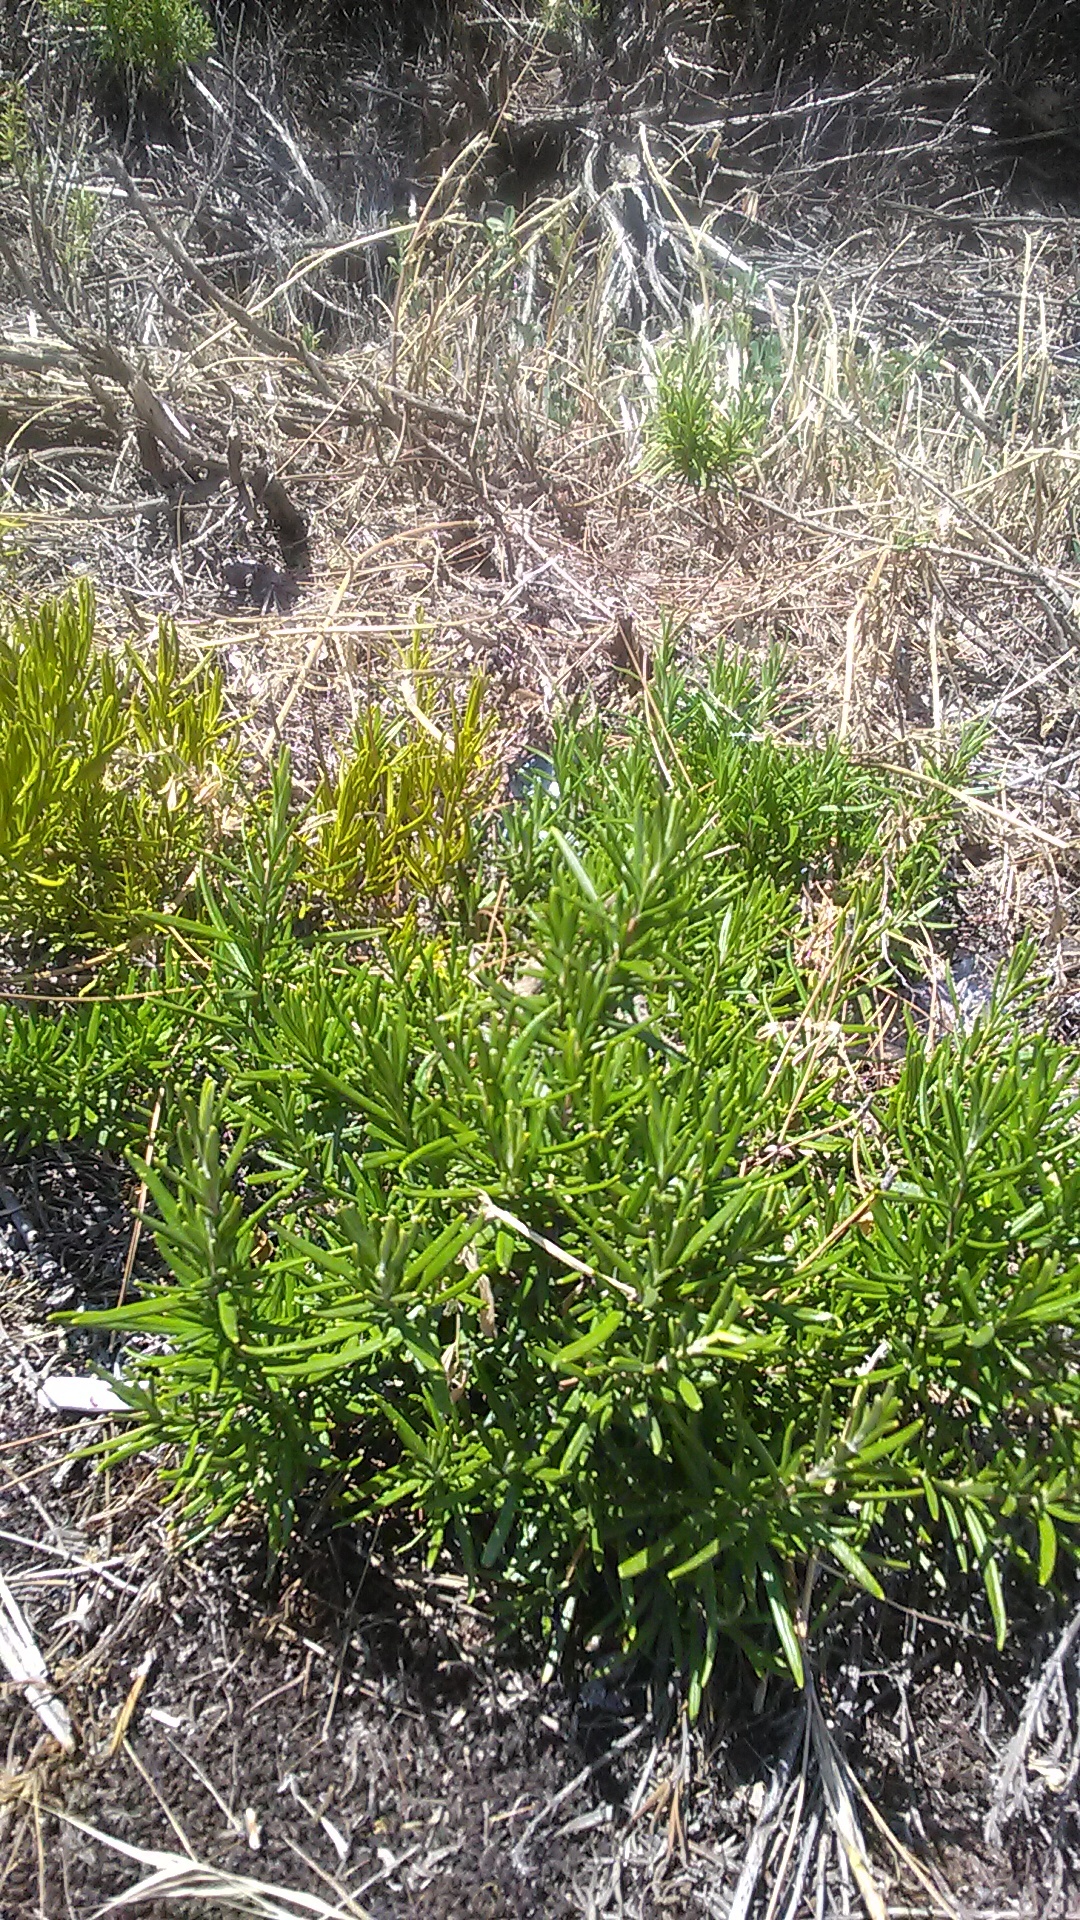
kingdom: Plantae
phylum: Tracheophyta
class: Magnoliopsida
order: Lamiales
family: Lamiaceae
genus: Salvia
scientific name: Salvia rosmarinus
